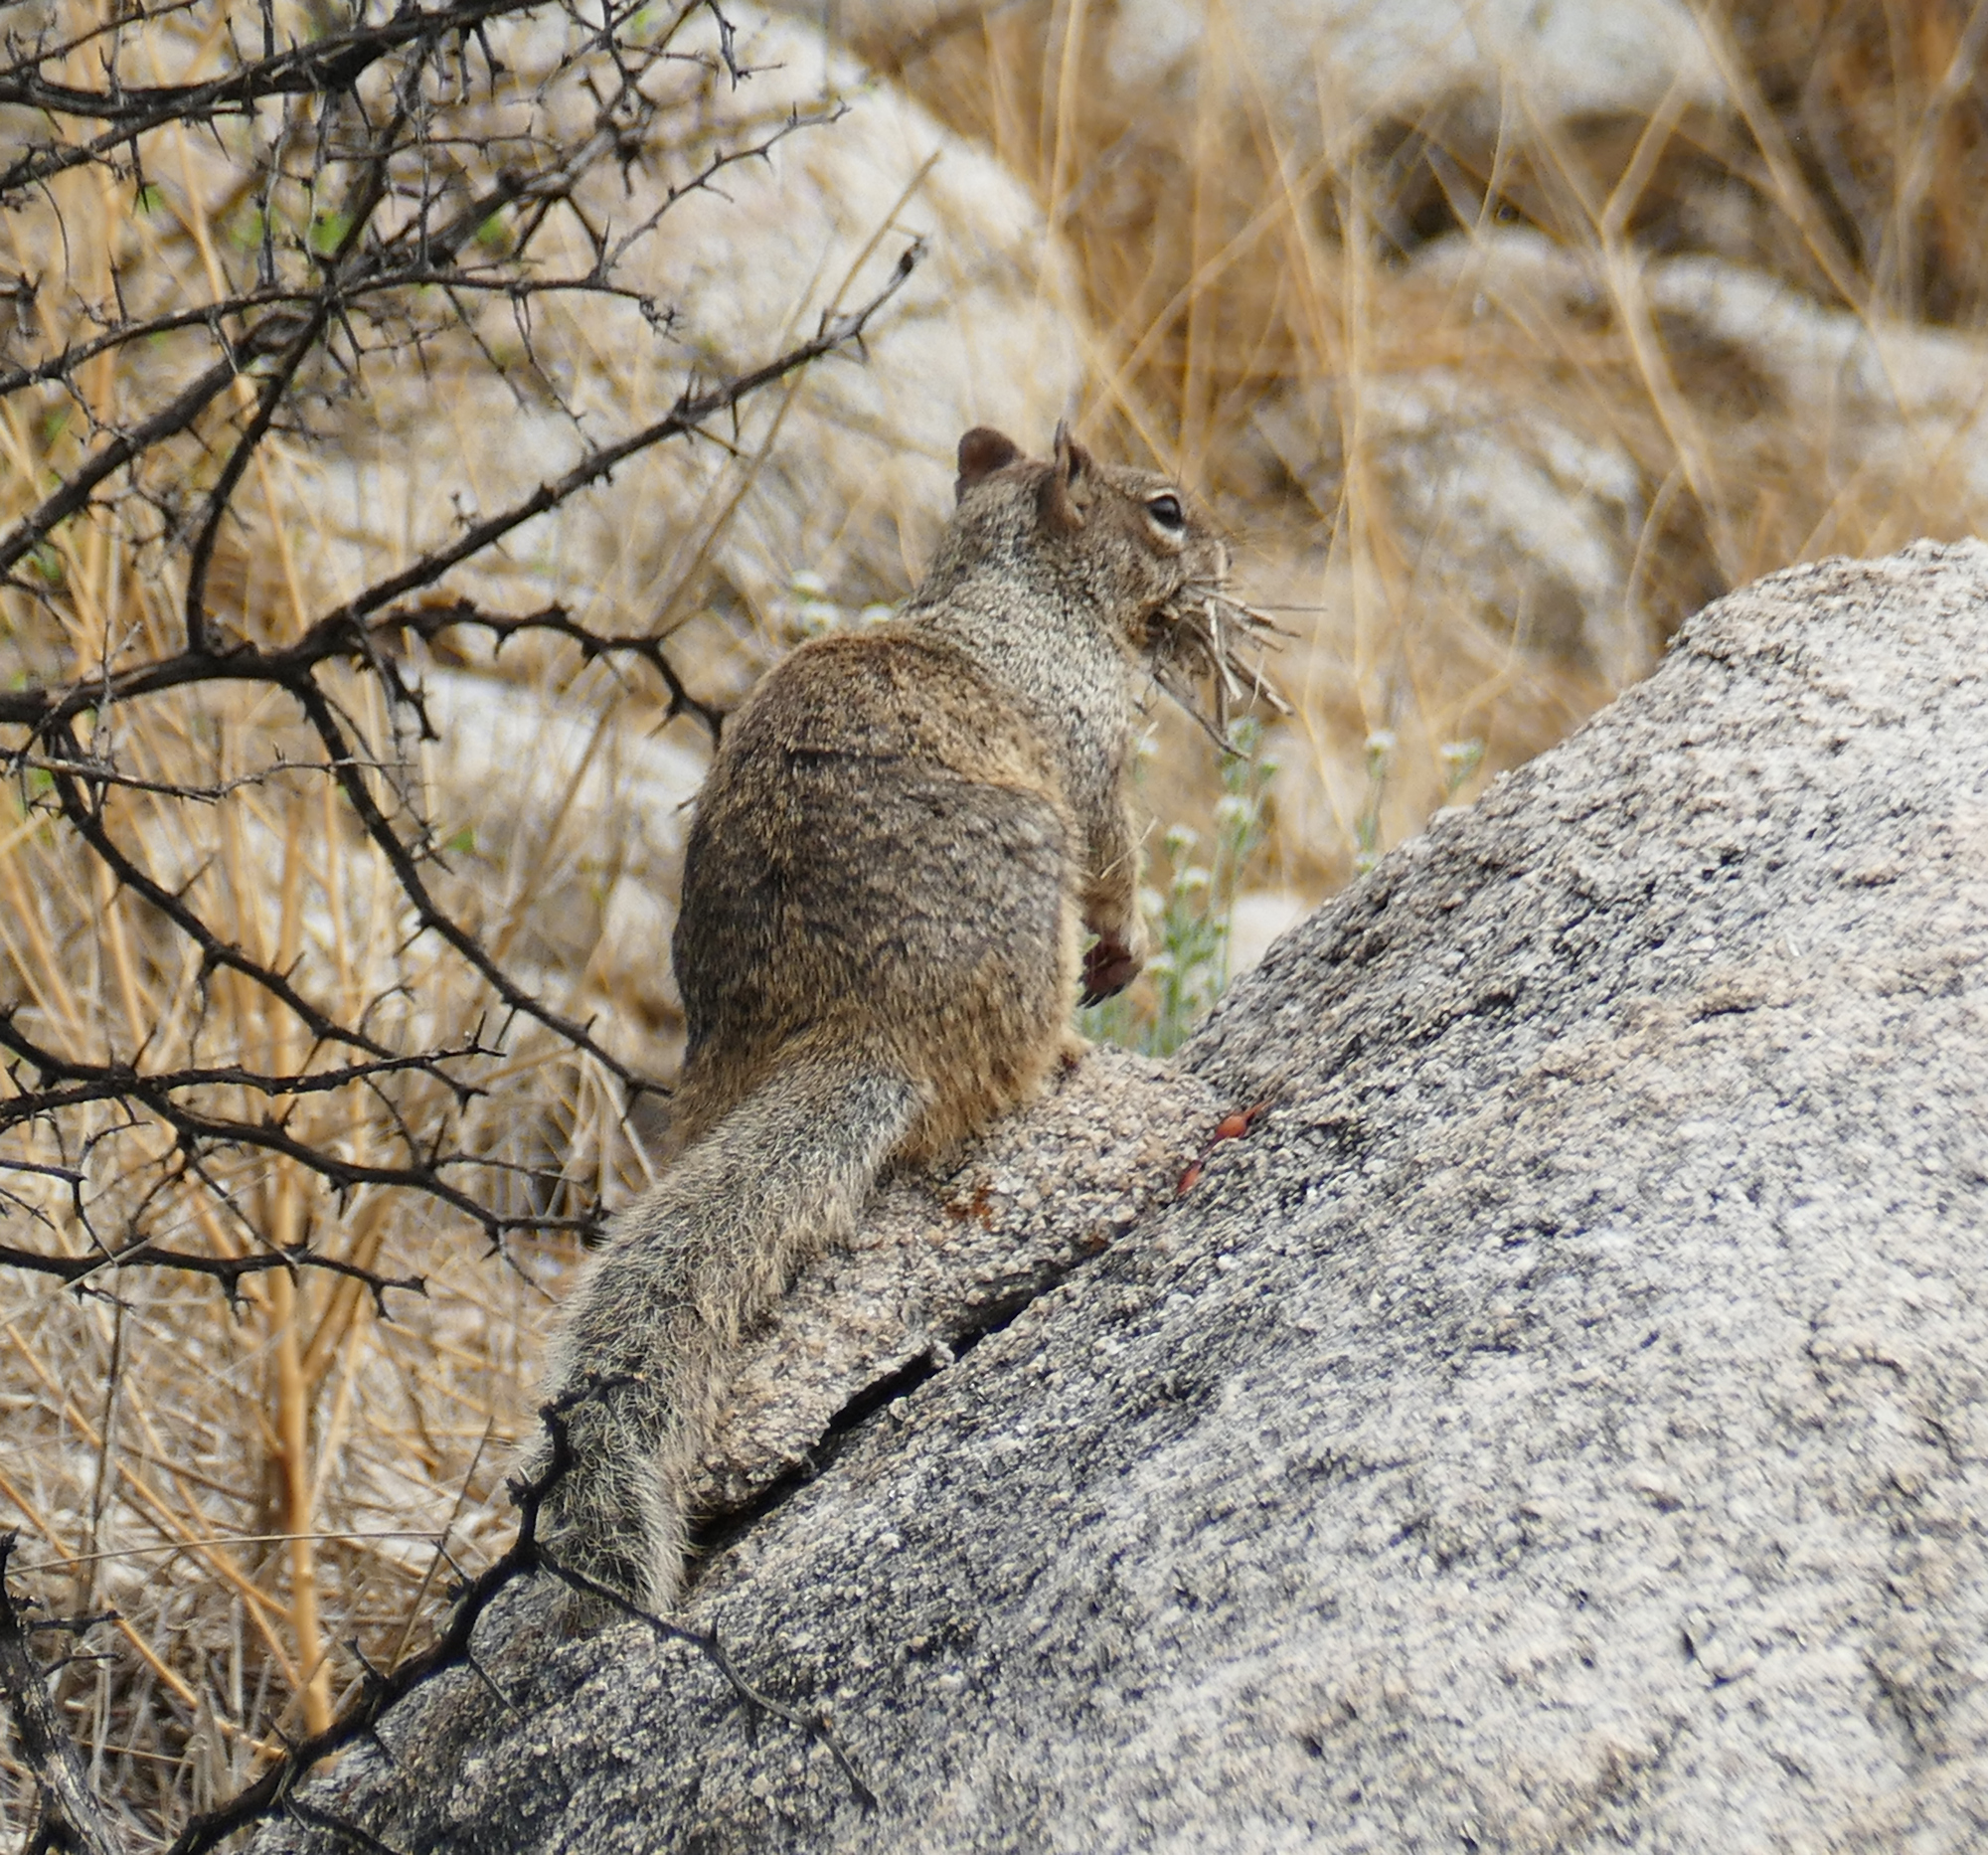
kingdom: Animalia
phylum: Chordata
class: Mammalia
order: Rodentia
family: Sciuridae
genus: Otospermophilus
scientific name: Otospermophilus variegatus
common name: Rock squirrel
